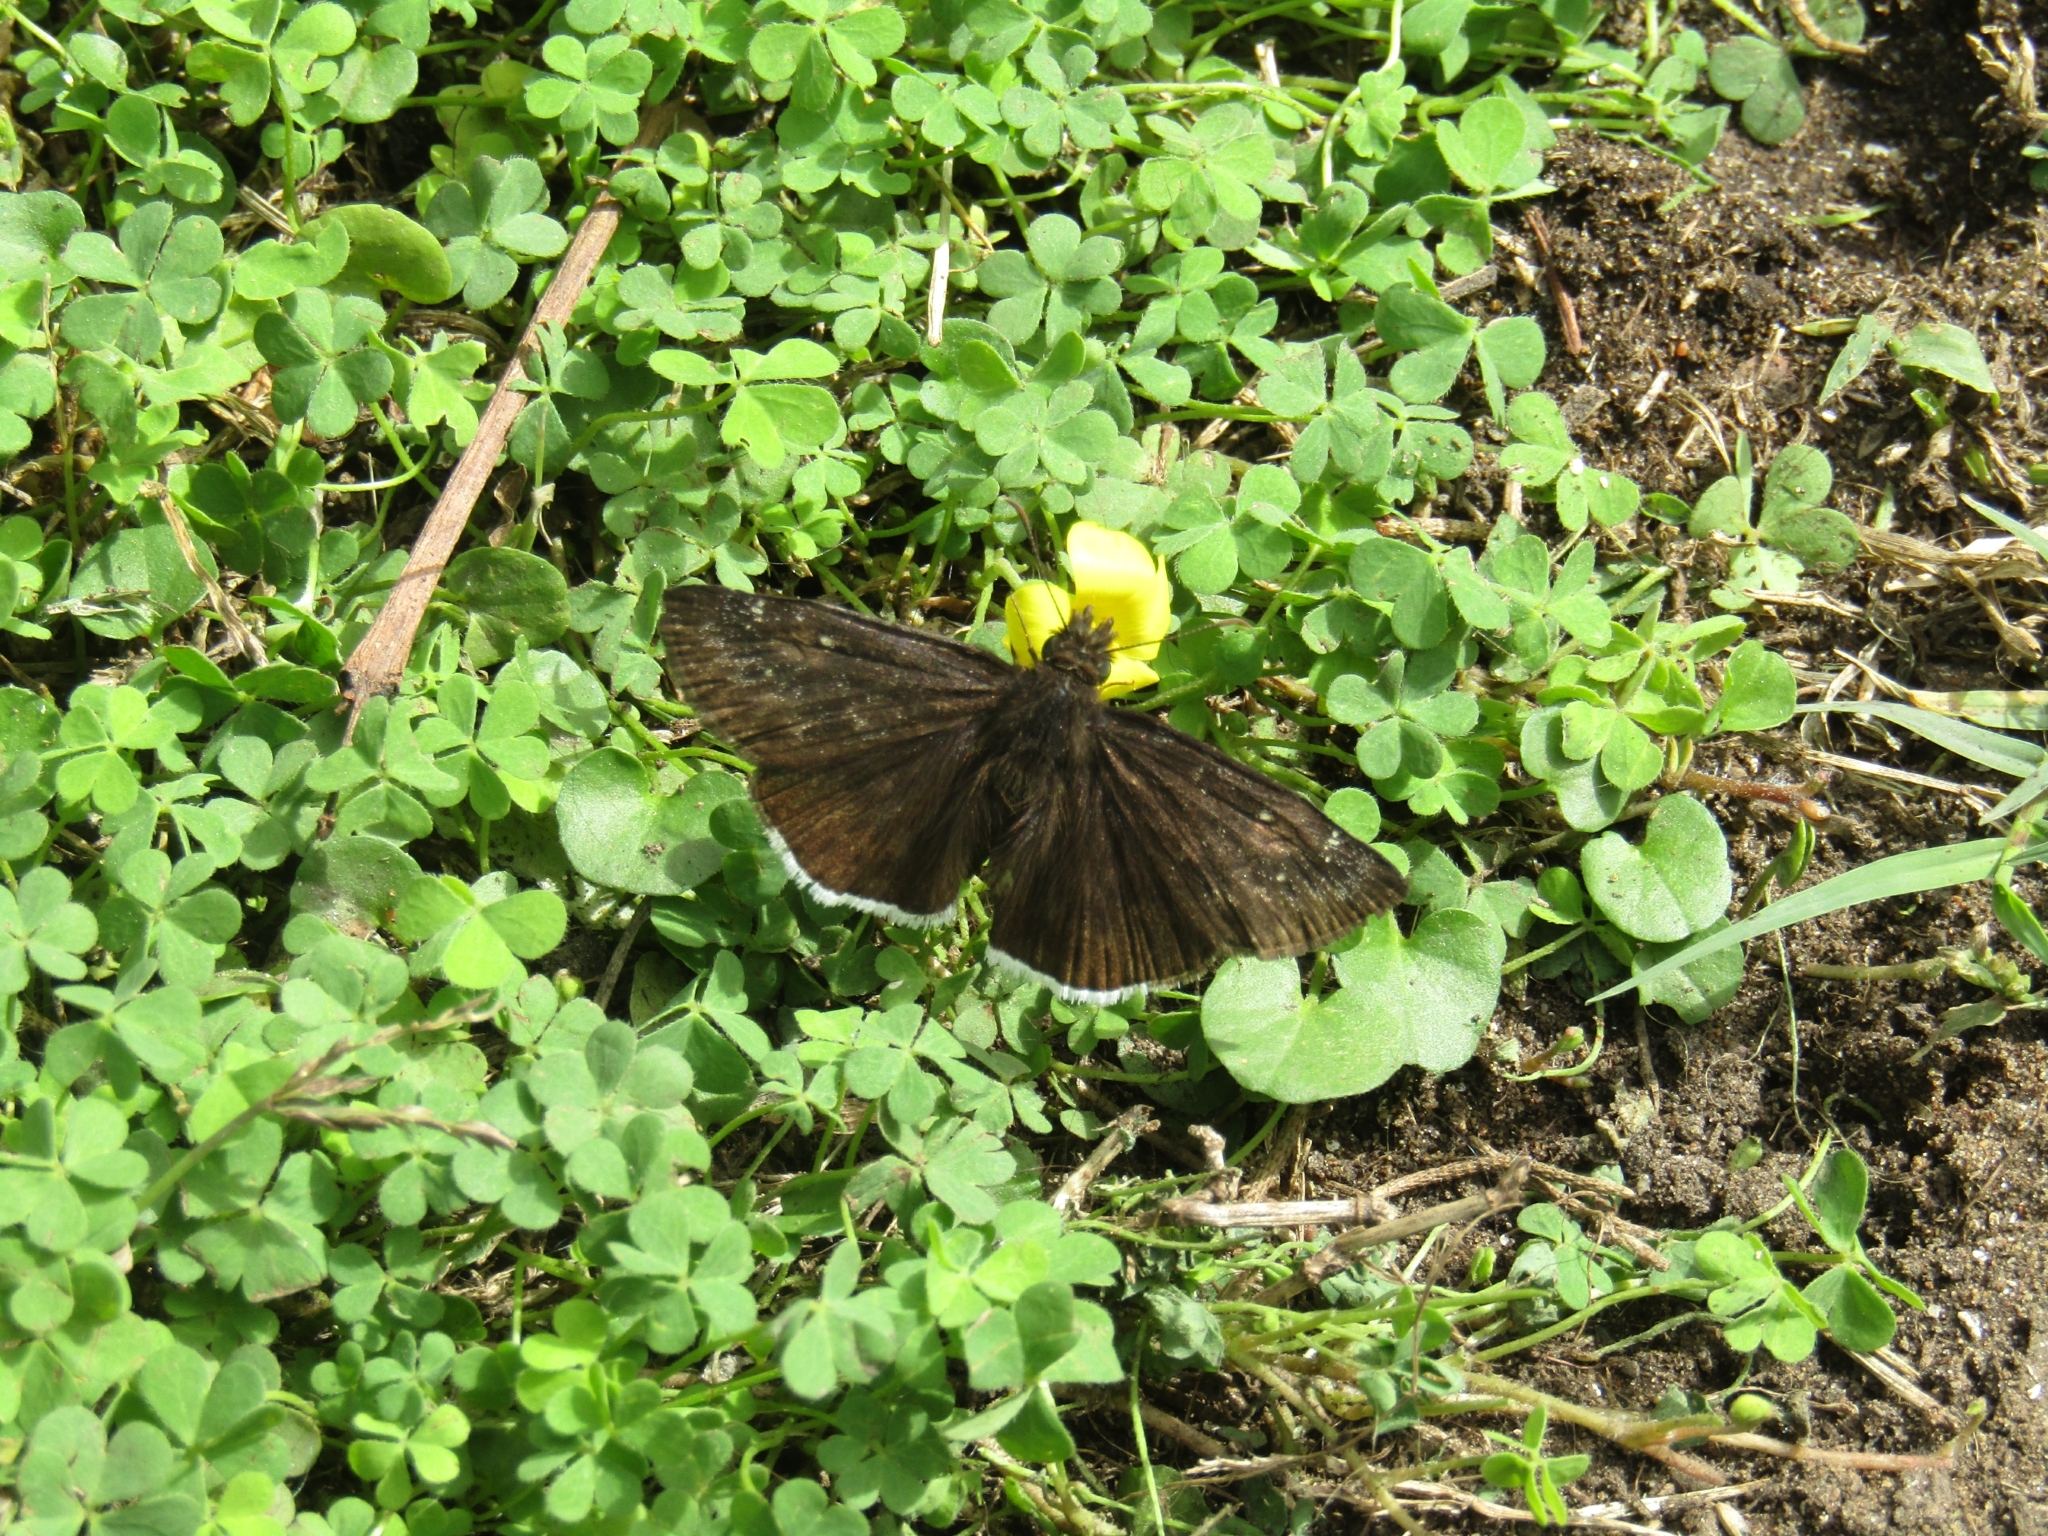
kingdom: Animalia
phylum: Arthropoda
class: Insecta
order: Lepidoptera
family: Hesperiidae
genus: Erynnis
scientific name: Erynnis funeralis
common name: Funereal duskywing
